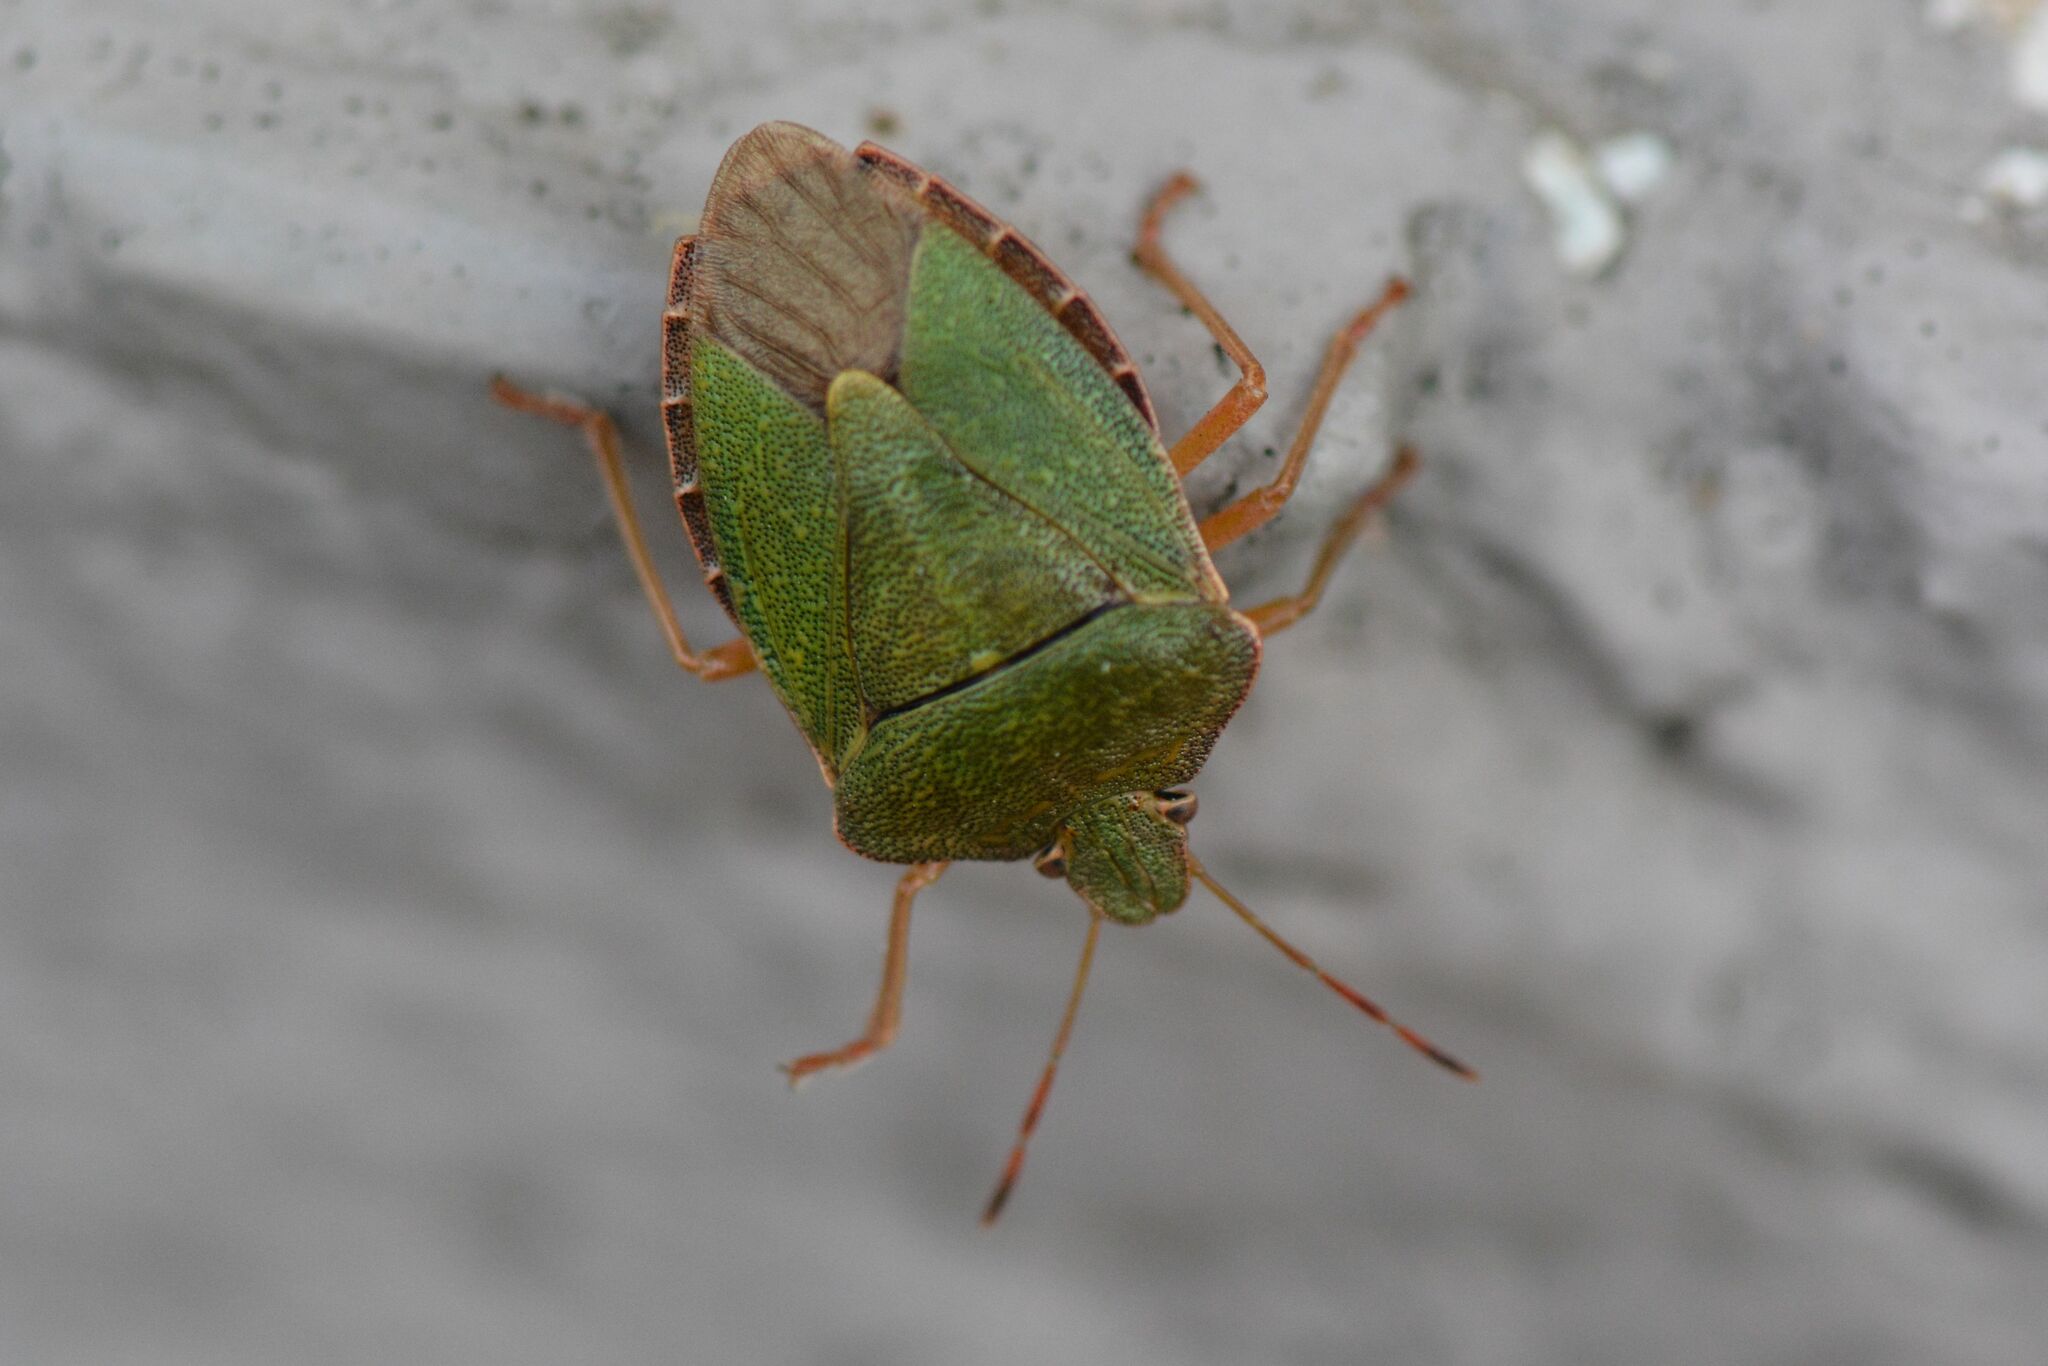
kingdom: Animalia
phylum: Arthropoda
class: Insecta
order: Hemiptera
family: Pentatomidae
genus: Palomena
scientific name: Palomena prasina
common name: Green shieldbug
